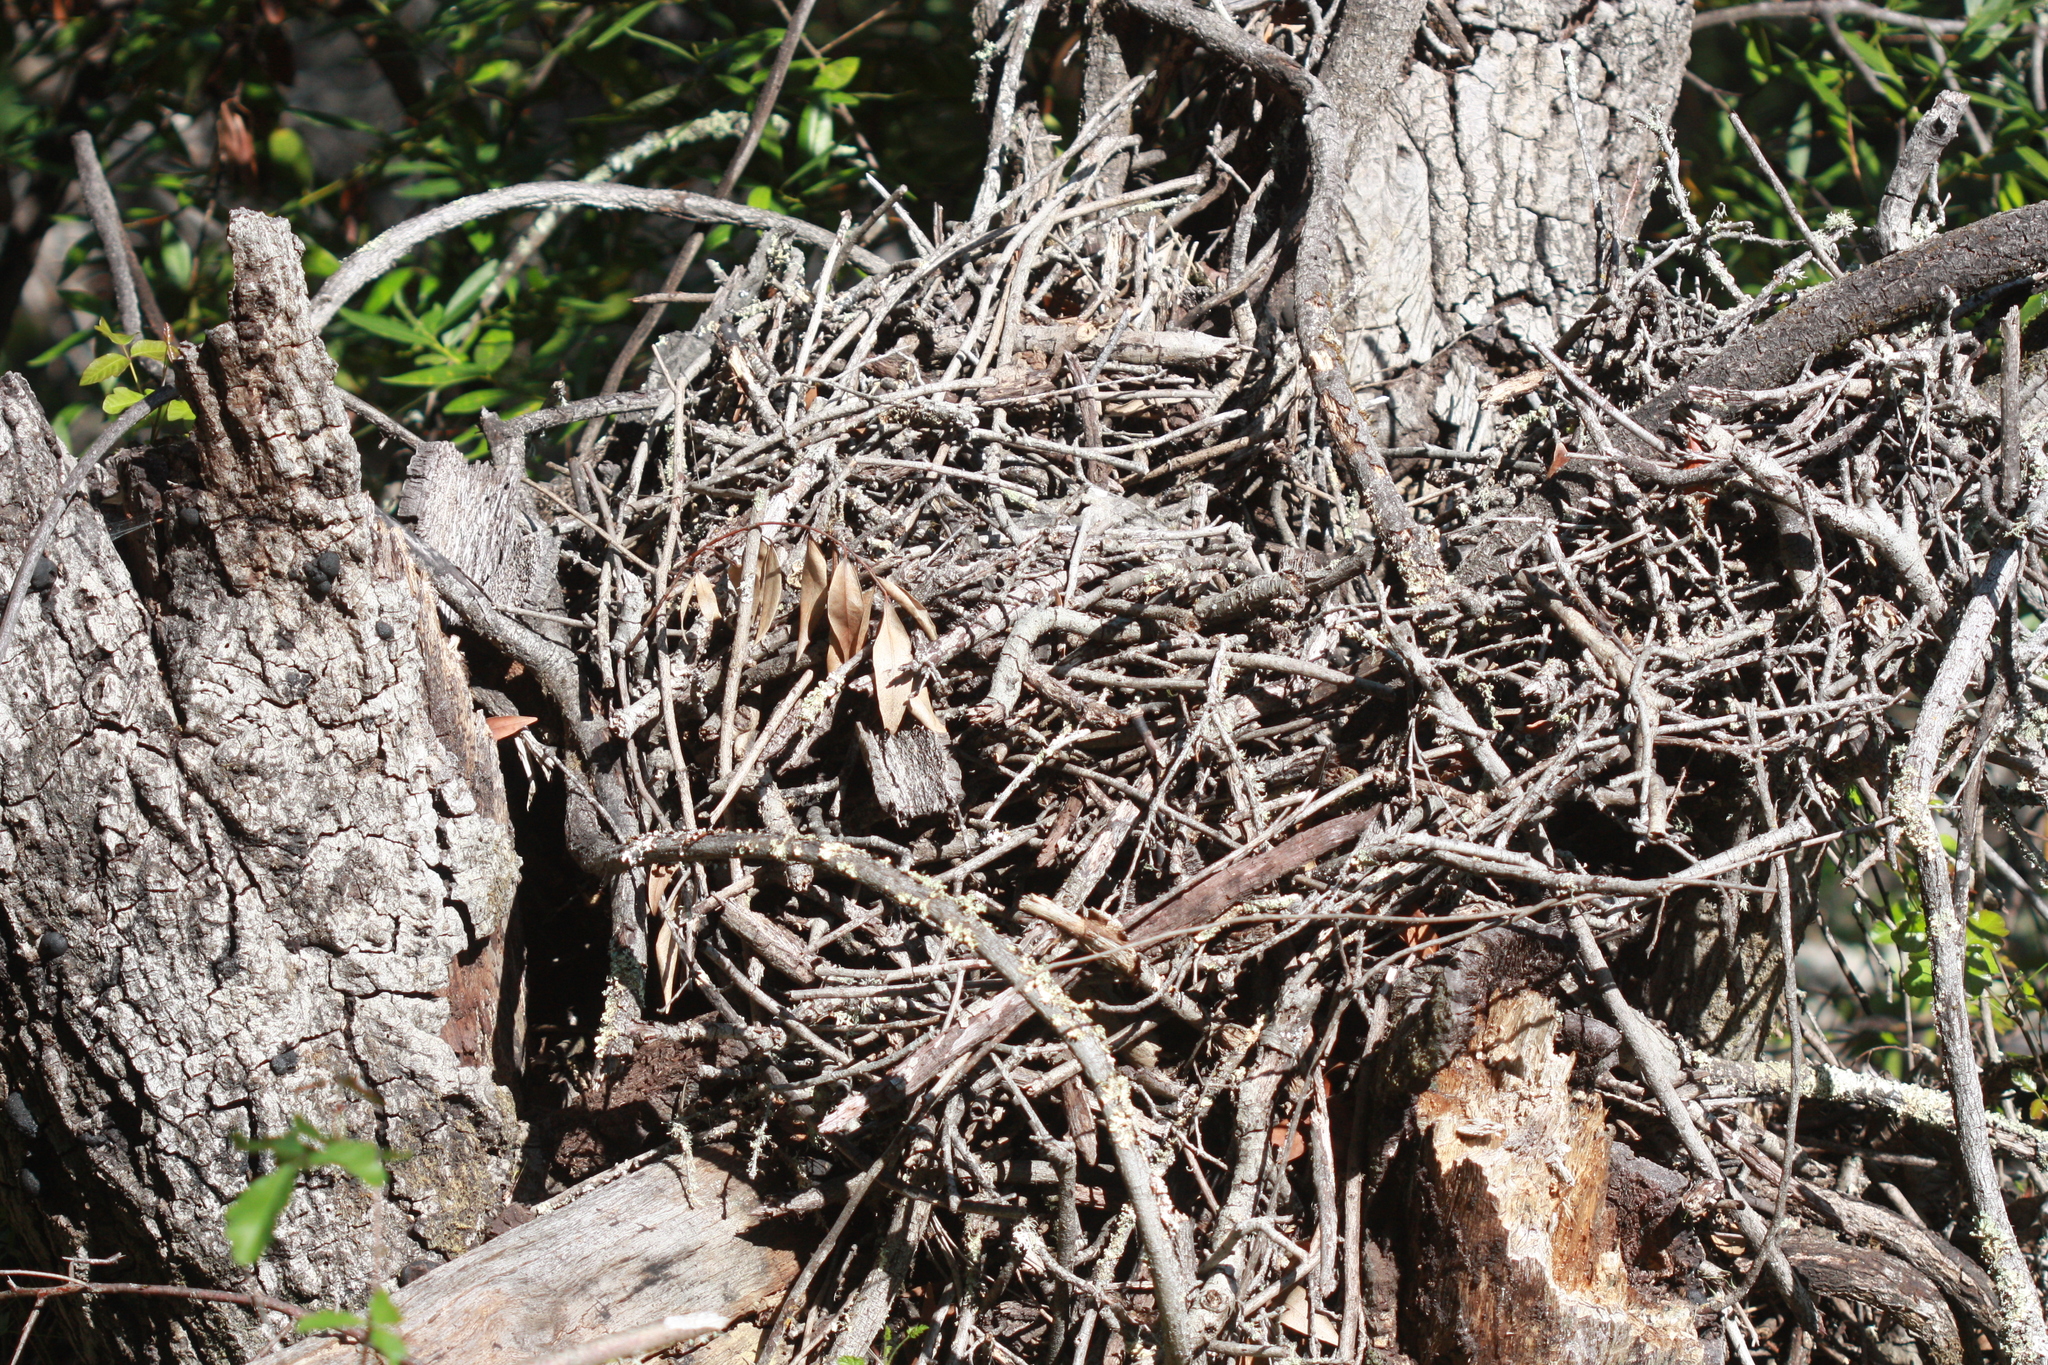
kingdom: Animalia
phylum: Chordata
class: Mammalia
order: Rodentia
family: Cricetidae
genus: Neotoma
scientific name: Neotoma fuscipes
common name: Dusky-footed woodrat
